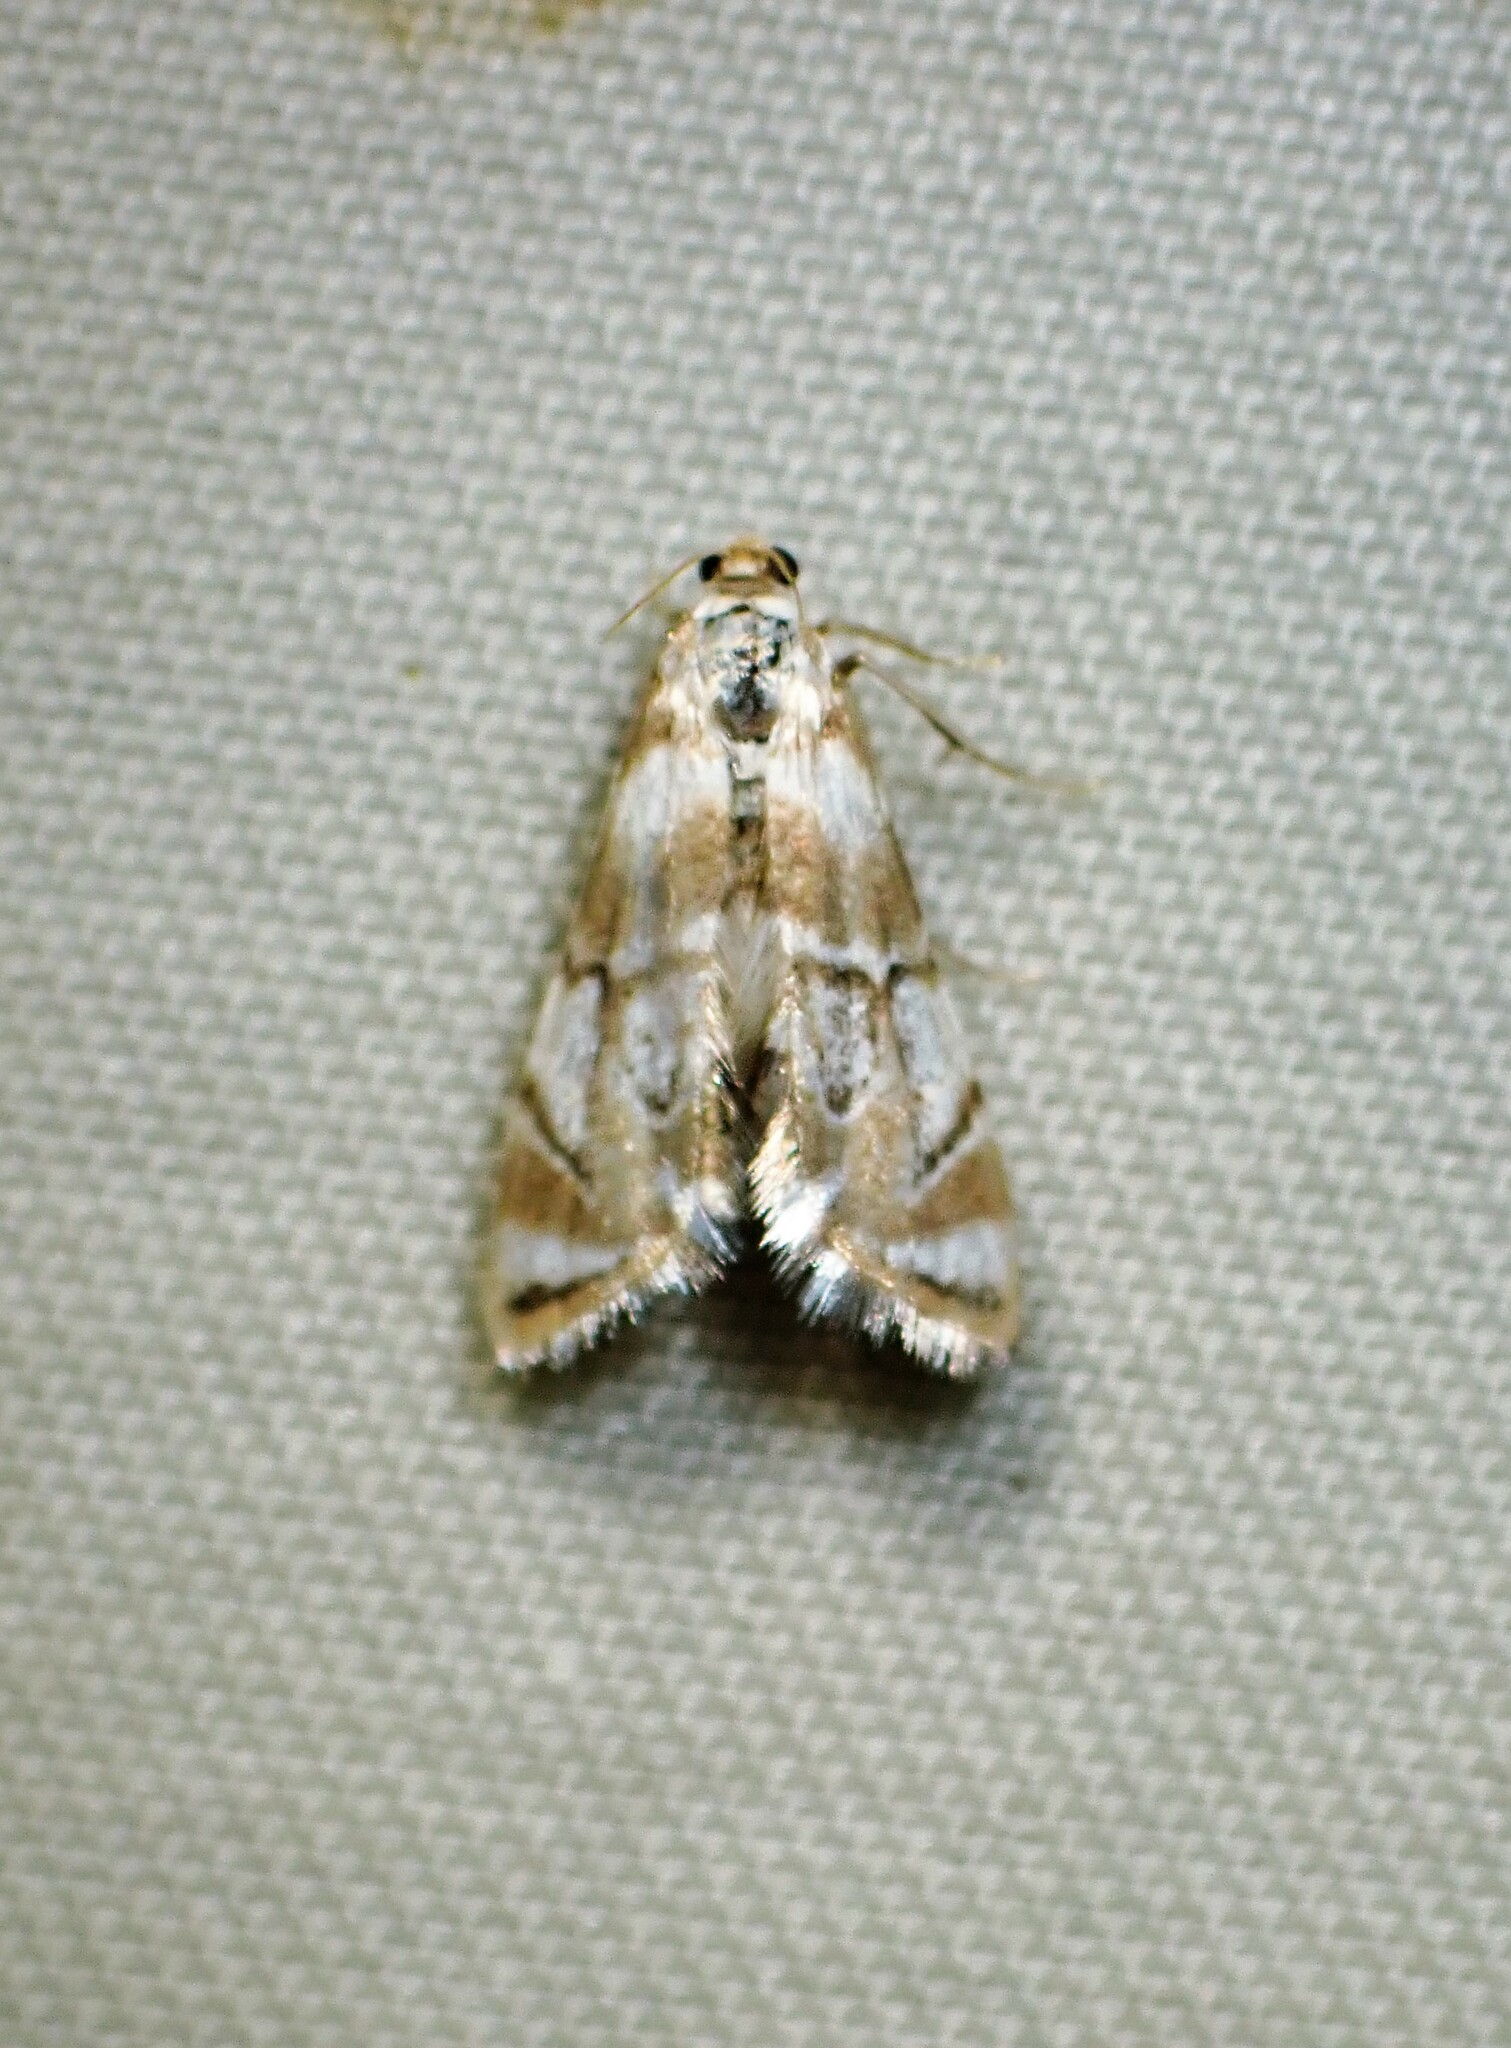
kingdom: Animalia
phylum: Arthropoda
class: Insecta
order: Lepidoptera
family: Crambidae
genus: Eoparargyractis
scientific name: Eoparargyractis plevie
